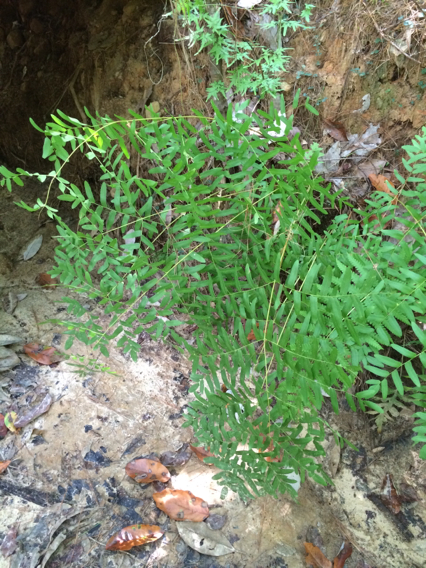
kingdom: Plantae
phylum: Tracheophyta
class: Polypodiopsida
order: Osmundales
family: Osmundaceae
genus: Osmunda
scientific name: Osmunda spectabilis
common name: American royal fern
